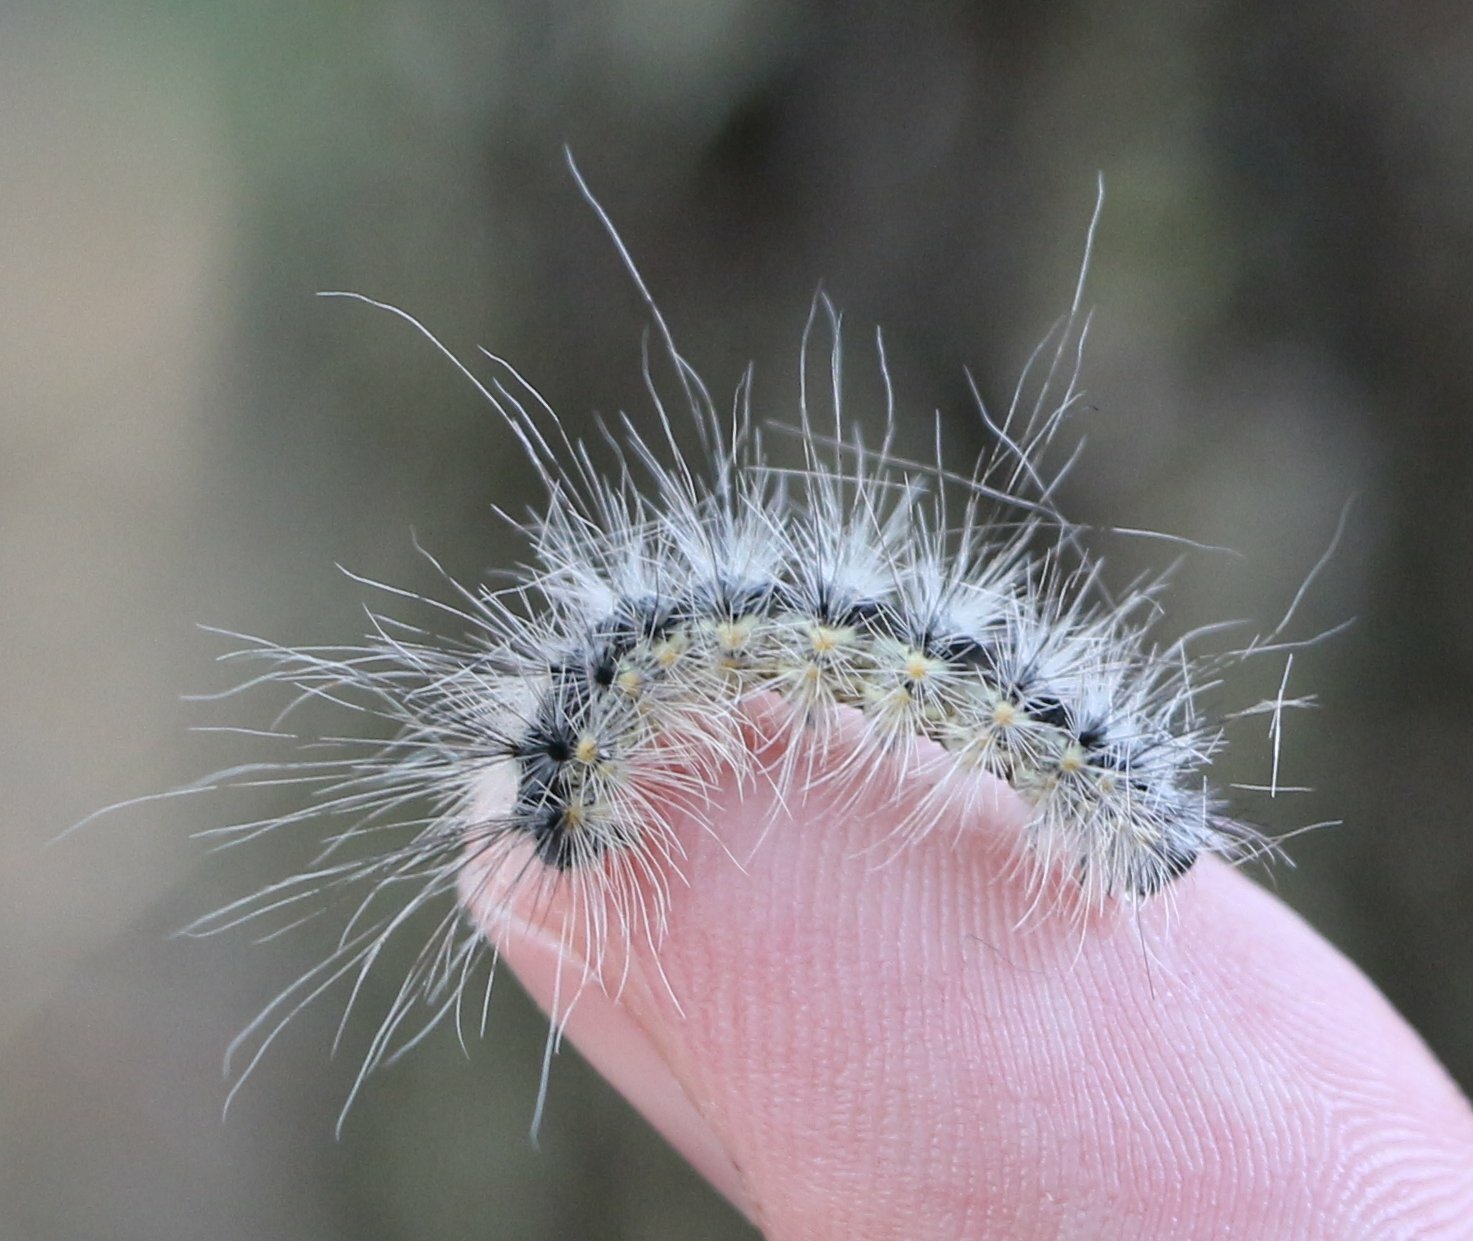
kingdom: Animalia
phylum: Arthropoda
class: Insecta
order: Lepidoptera
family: Erebidae
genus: Hyphantria
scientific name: Hyphantria cunea
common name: American white moth
